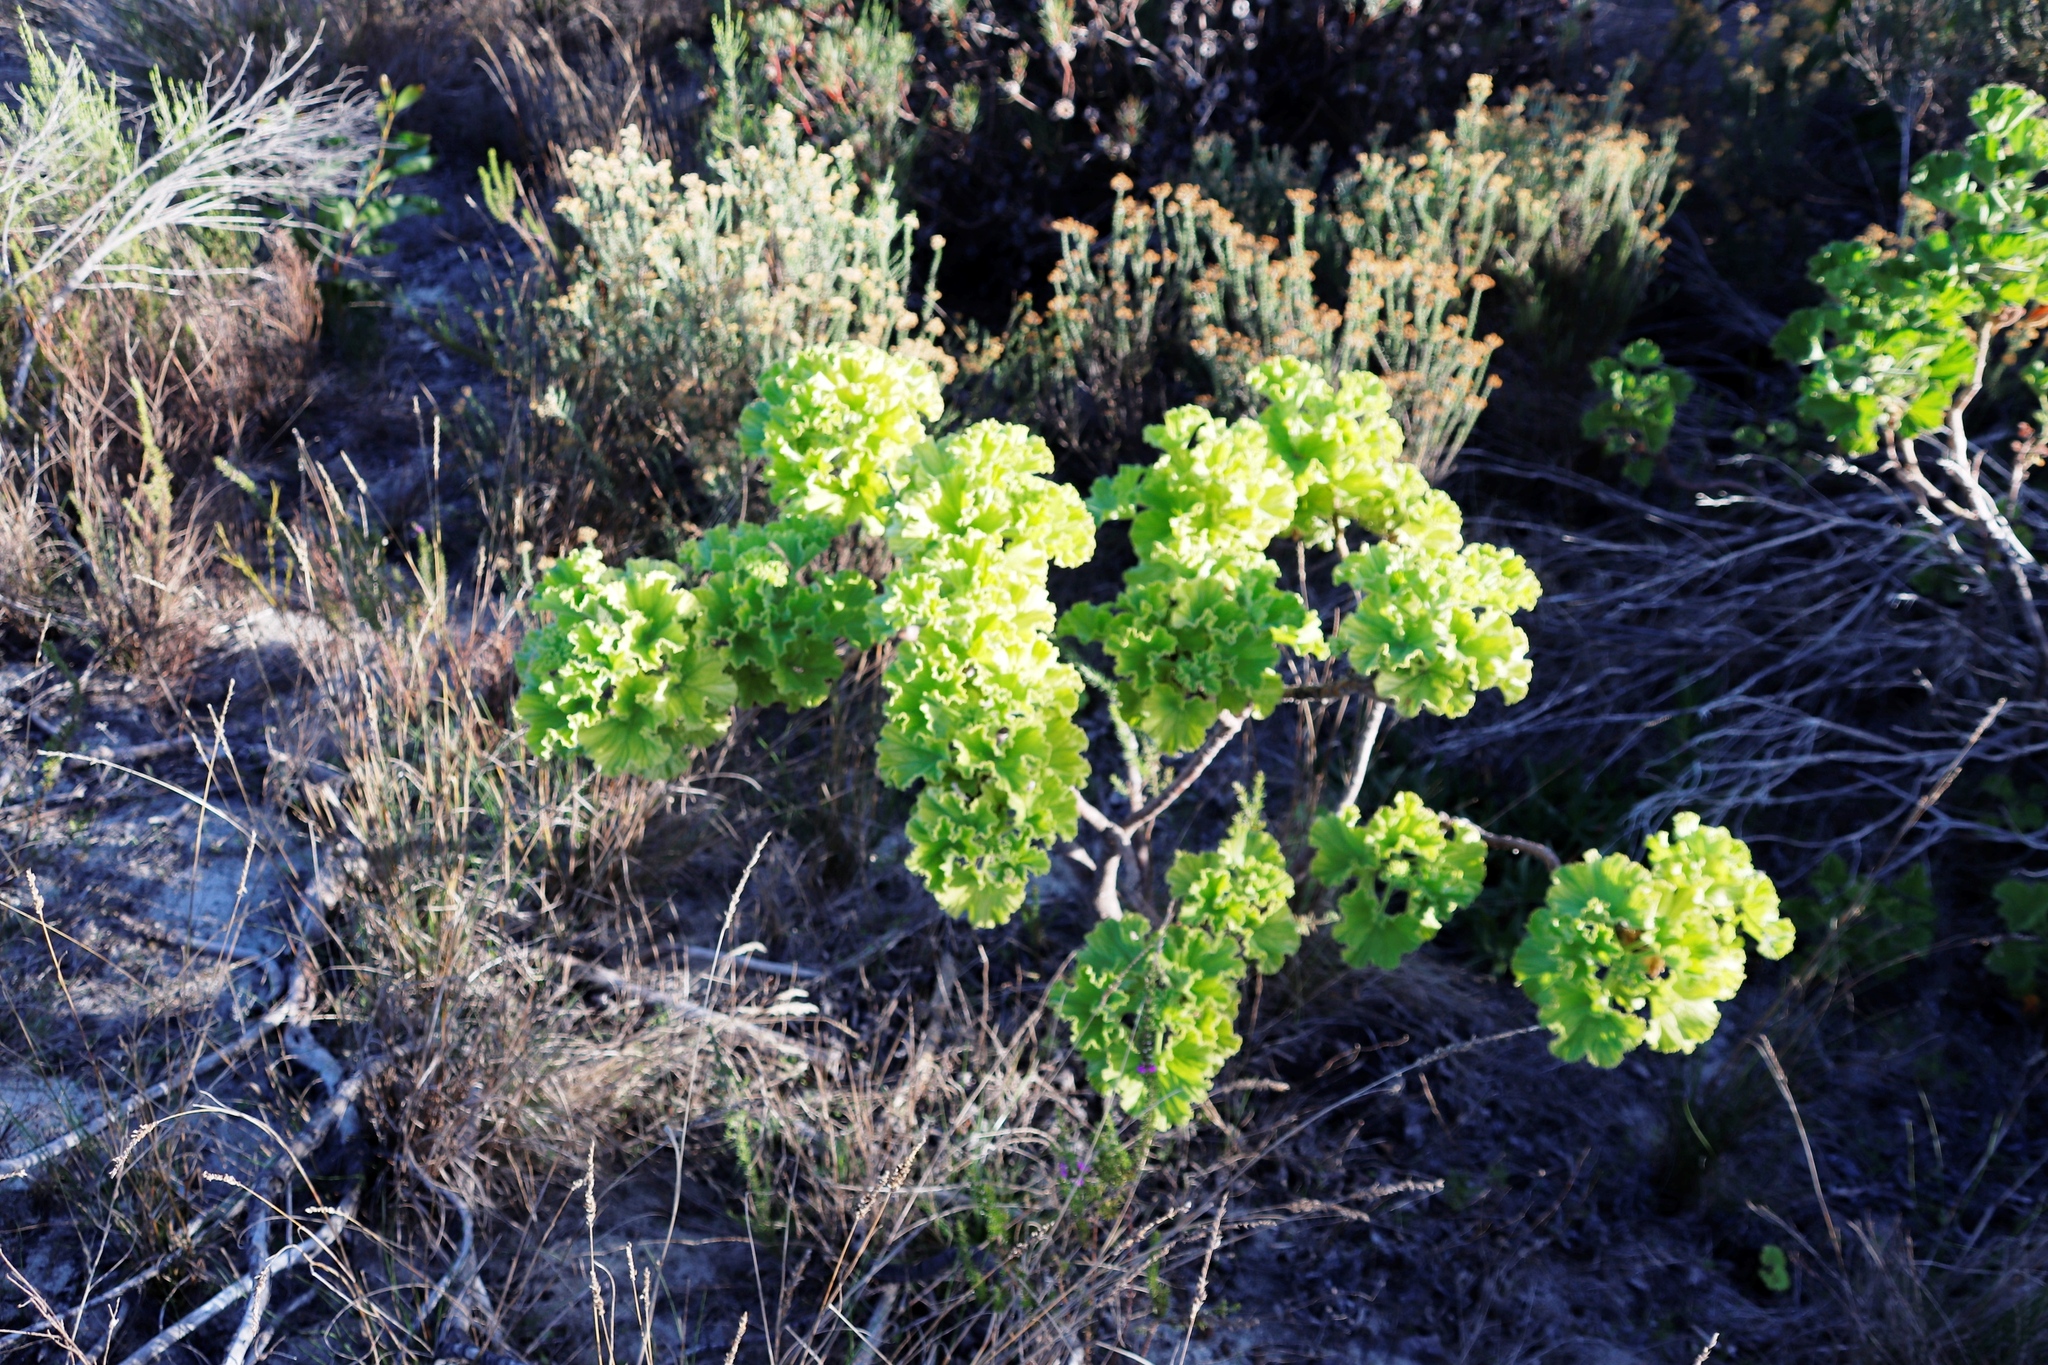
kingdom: Plantae
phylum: Tracheophyta
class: Magnoliopsida
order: Geraniales
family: Geraniaceae
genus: Pelargonium
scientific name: Pelargonium cucullatum
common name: Tree pelargonium
